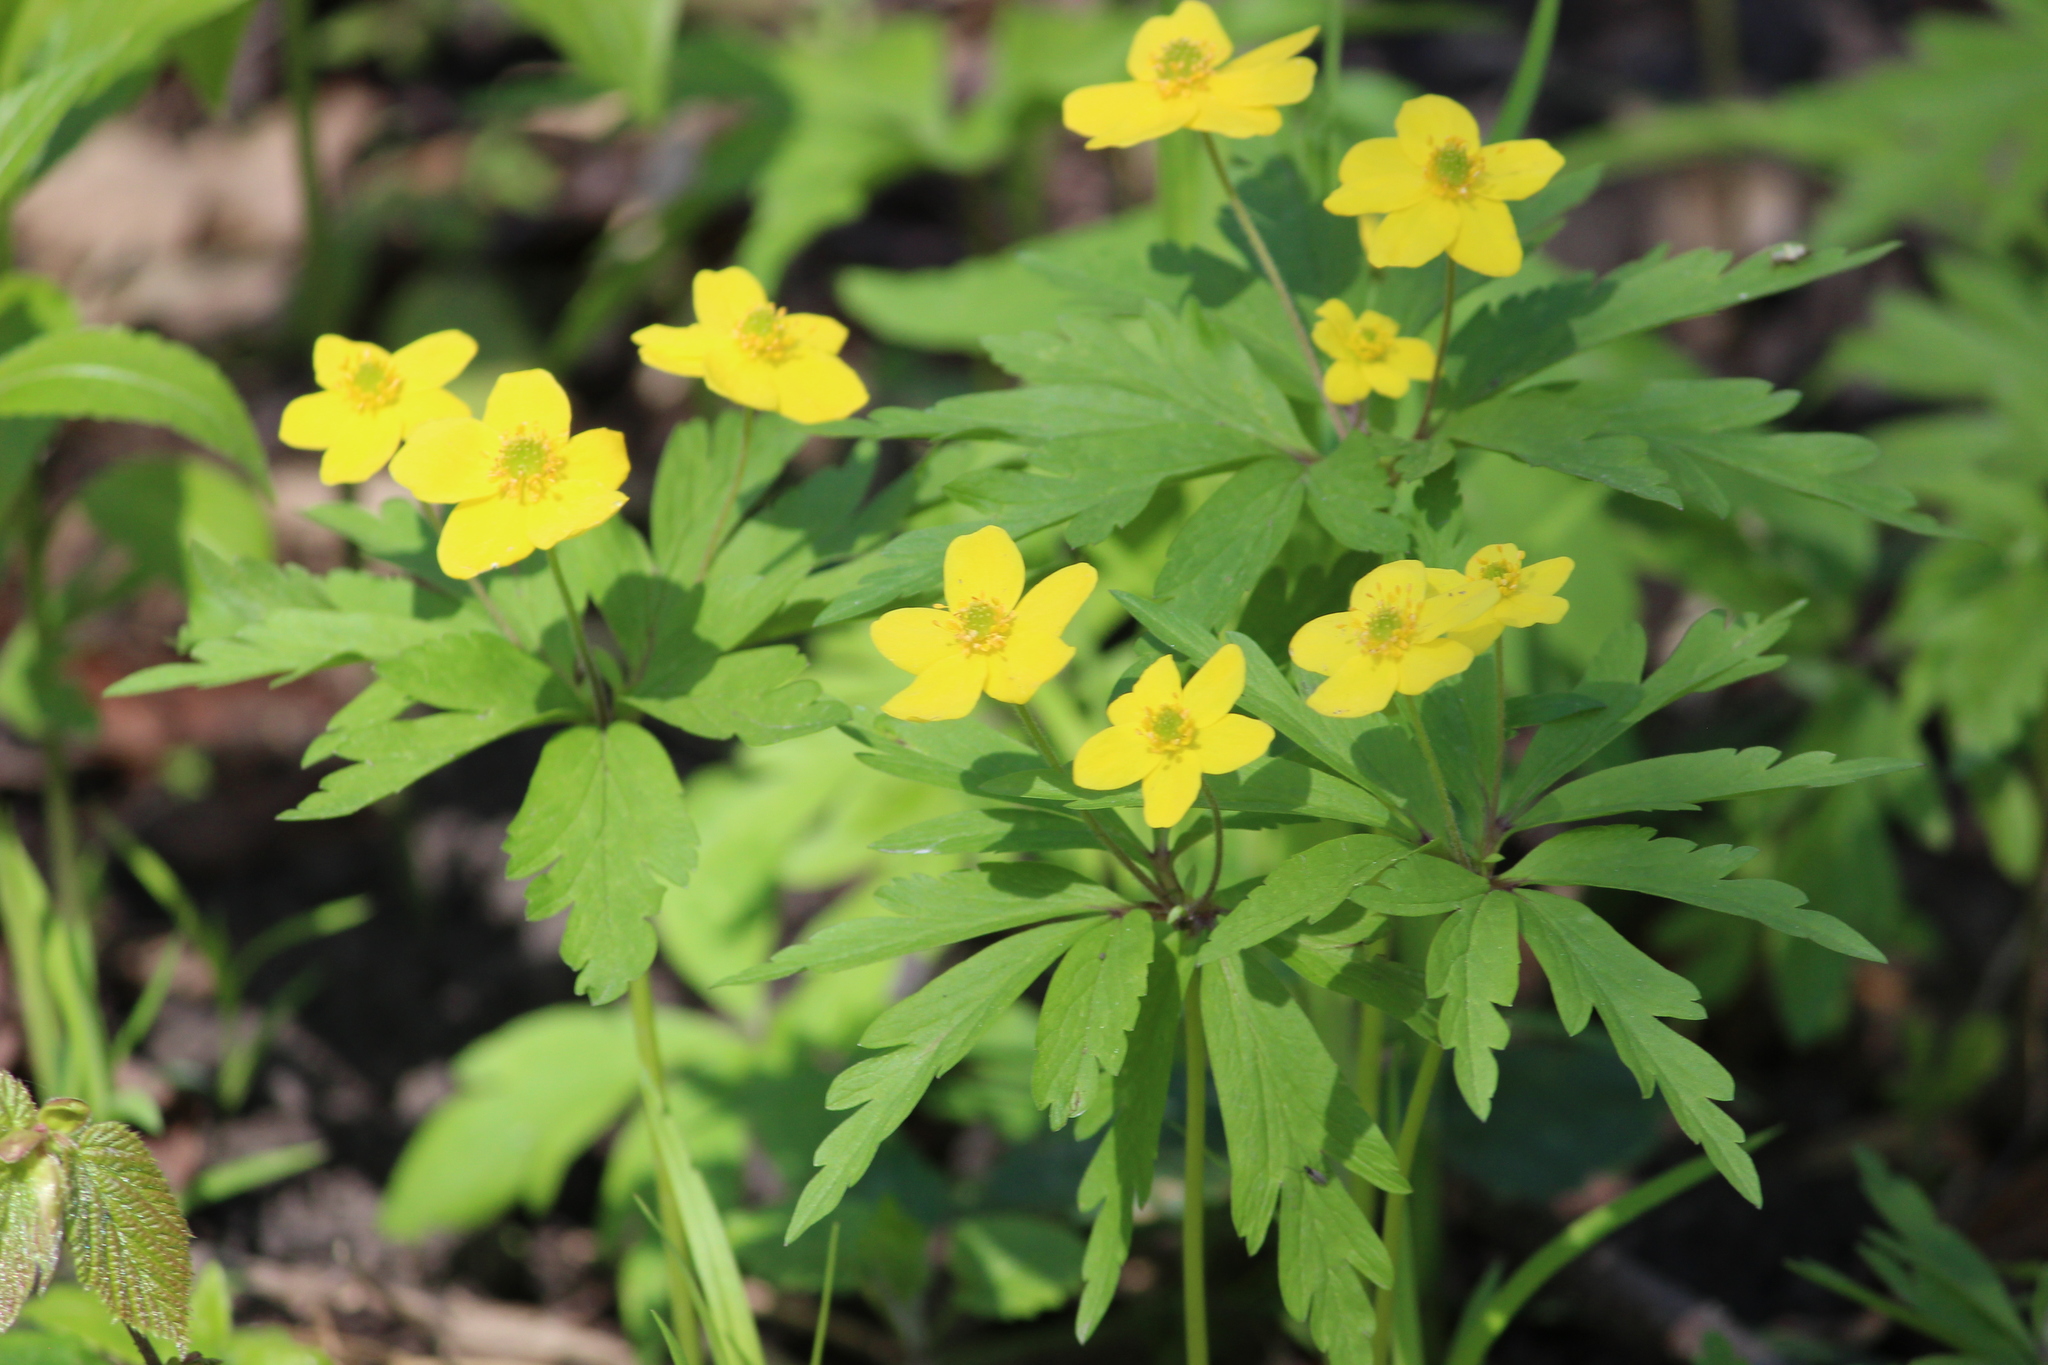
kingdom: Plantae
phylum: Tracheophyta
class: Magnoliopsida
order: Ranunculales
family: Ranunculaceae
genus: Anemone
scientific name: Anemone ranunculoides
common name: Yellow anemone
